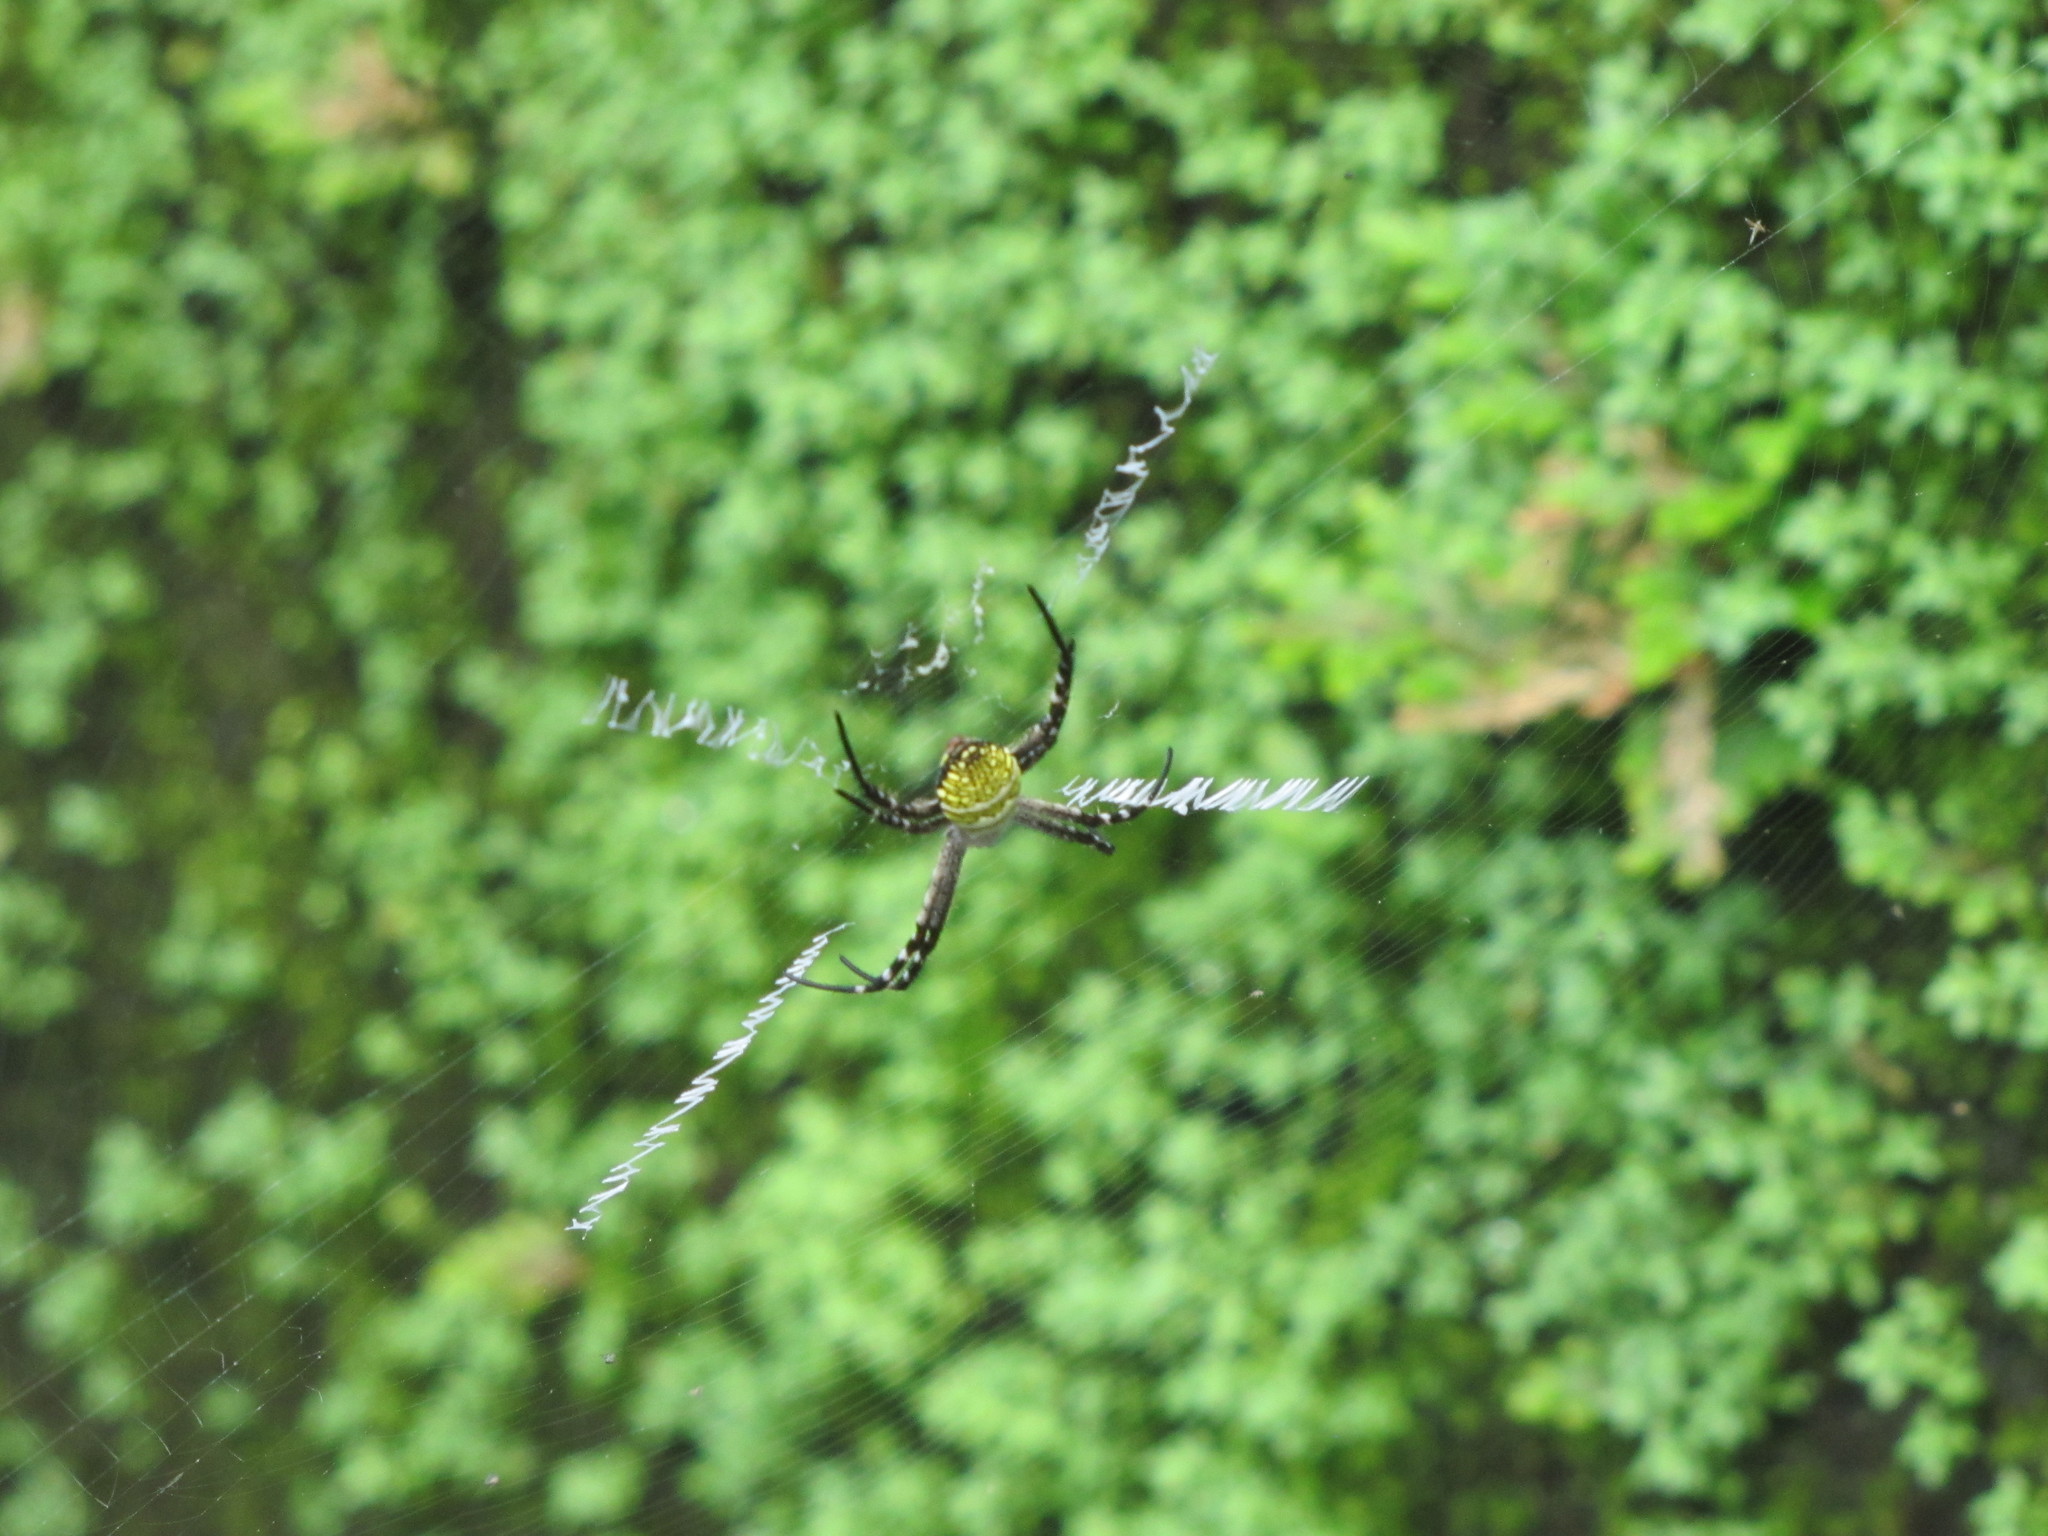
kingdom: Animalia
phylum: Arthropoda
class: Arachnida
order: Araneae
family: Araneidae
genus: Argiope
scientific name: Argiope aemula
